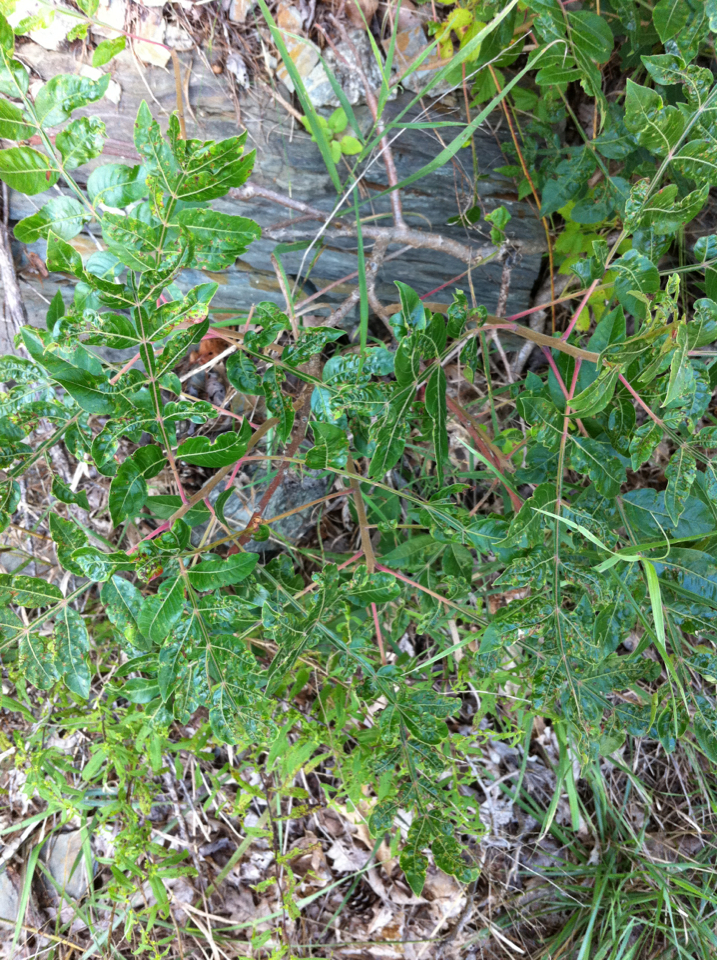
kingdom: Plantae
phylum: Tracheophyta
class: Magnoliopsida
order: Sapindales
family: Anacardiaceae
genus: Rhus
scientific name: Rhus copallina
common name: Shining sumac
